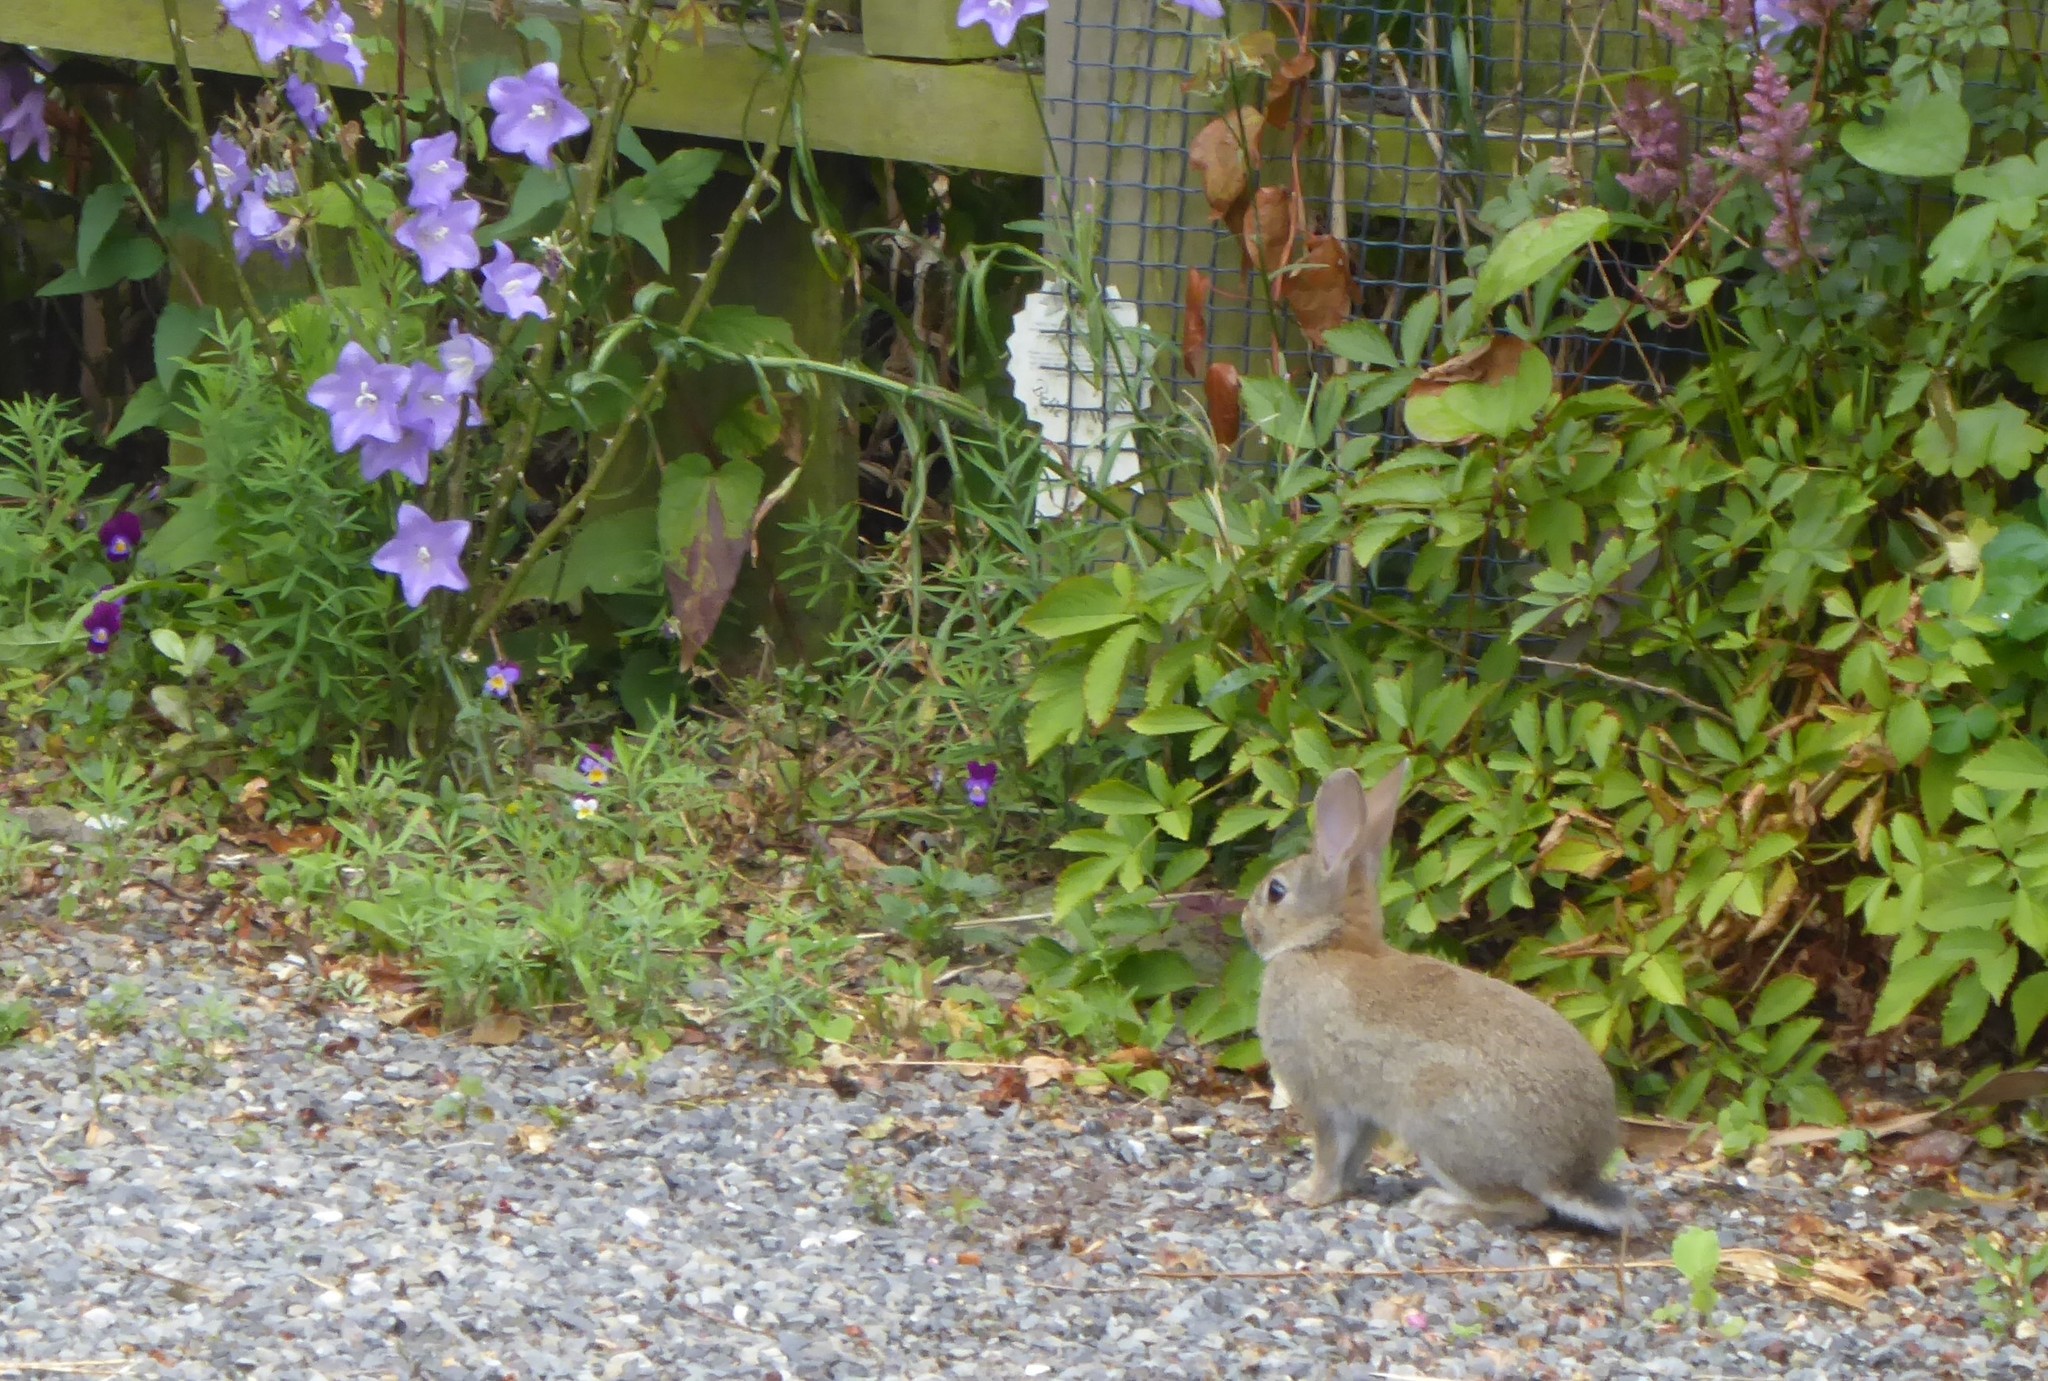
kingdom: Animalia
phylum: Chordata
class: Mammalia
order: Lagomorpha
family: Leporidae
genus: Oryctolagus
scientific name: Oryctolagus cuniculus
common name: European rabbit
